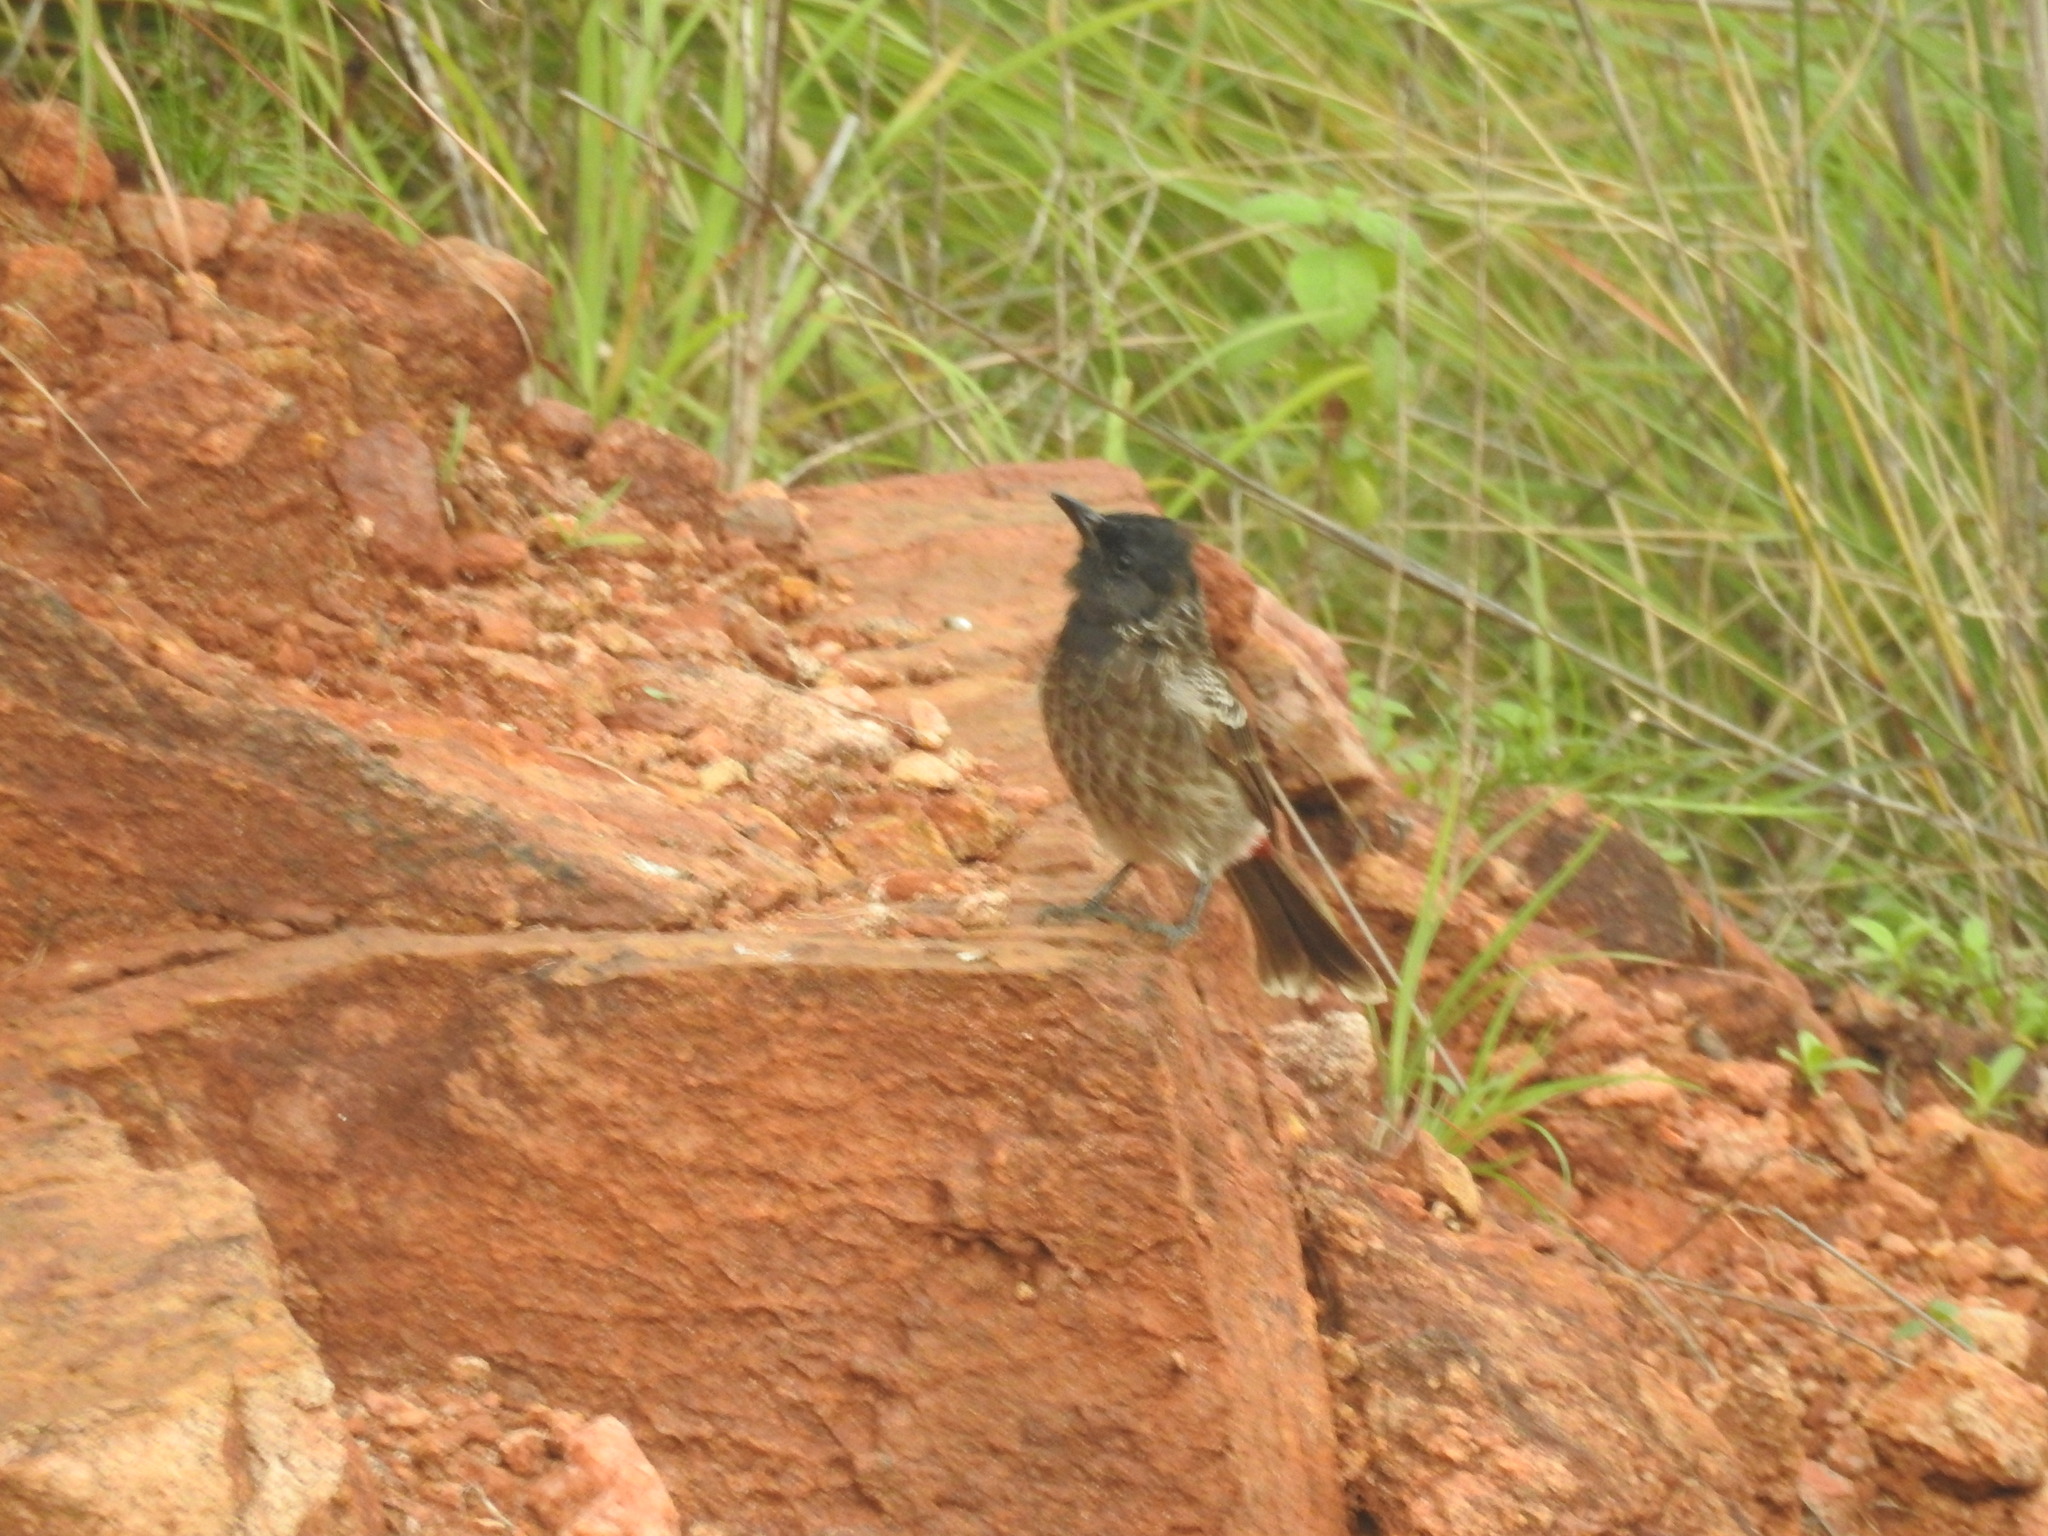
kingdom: Animalia
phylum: Chordata
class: Aves
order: Passeriformes
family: Pycnonotidae
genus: Pycnonotus
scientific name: Pycnonotus cafer
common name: Red-vented bulbul
